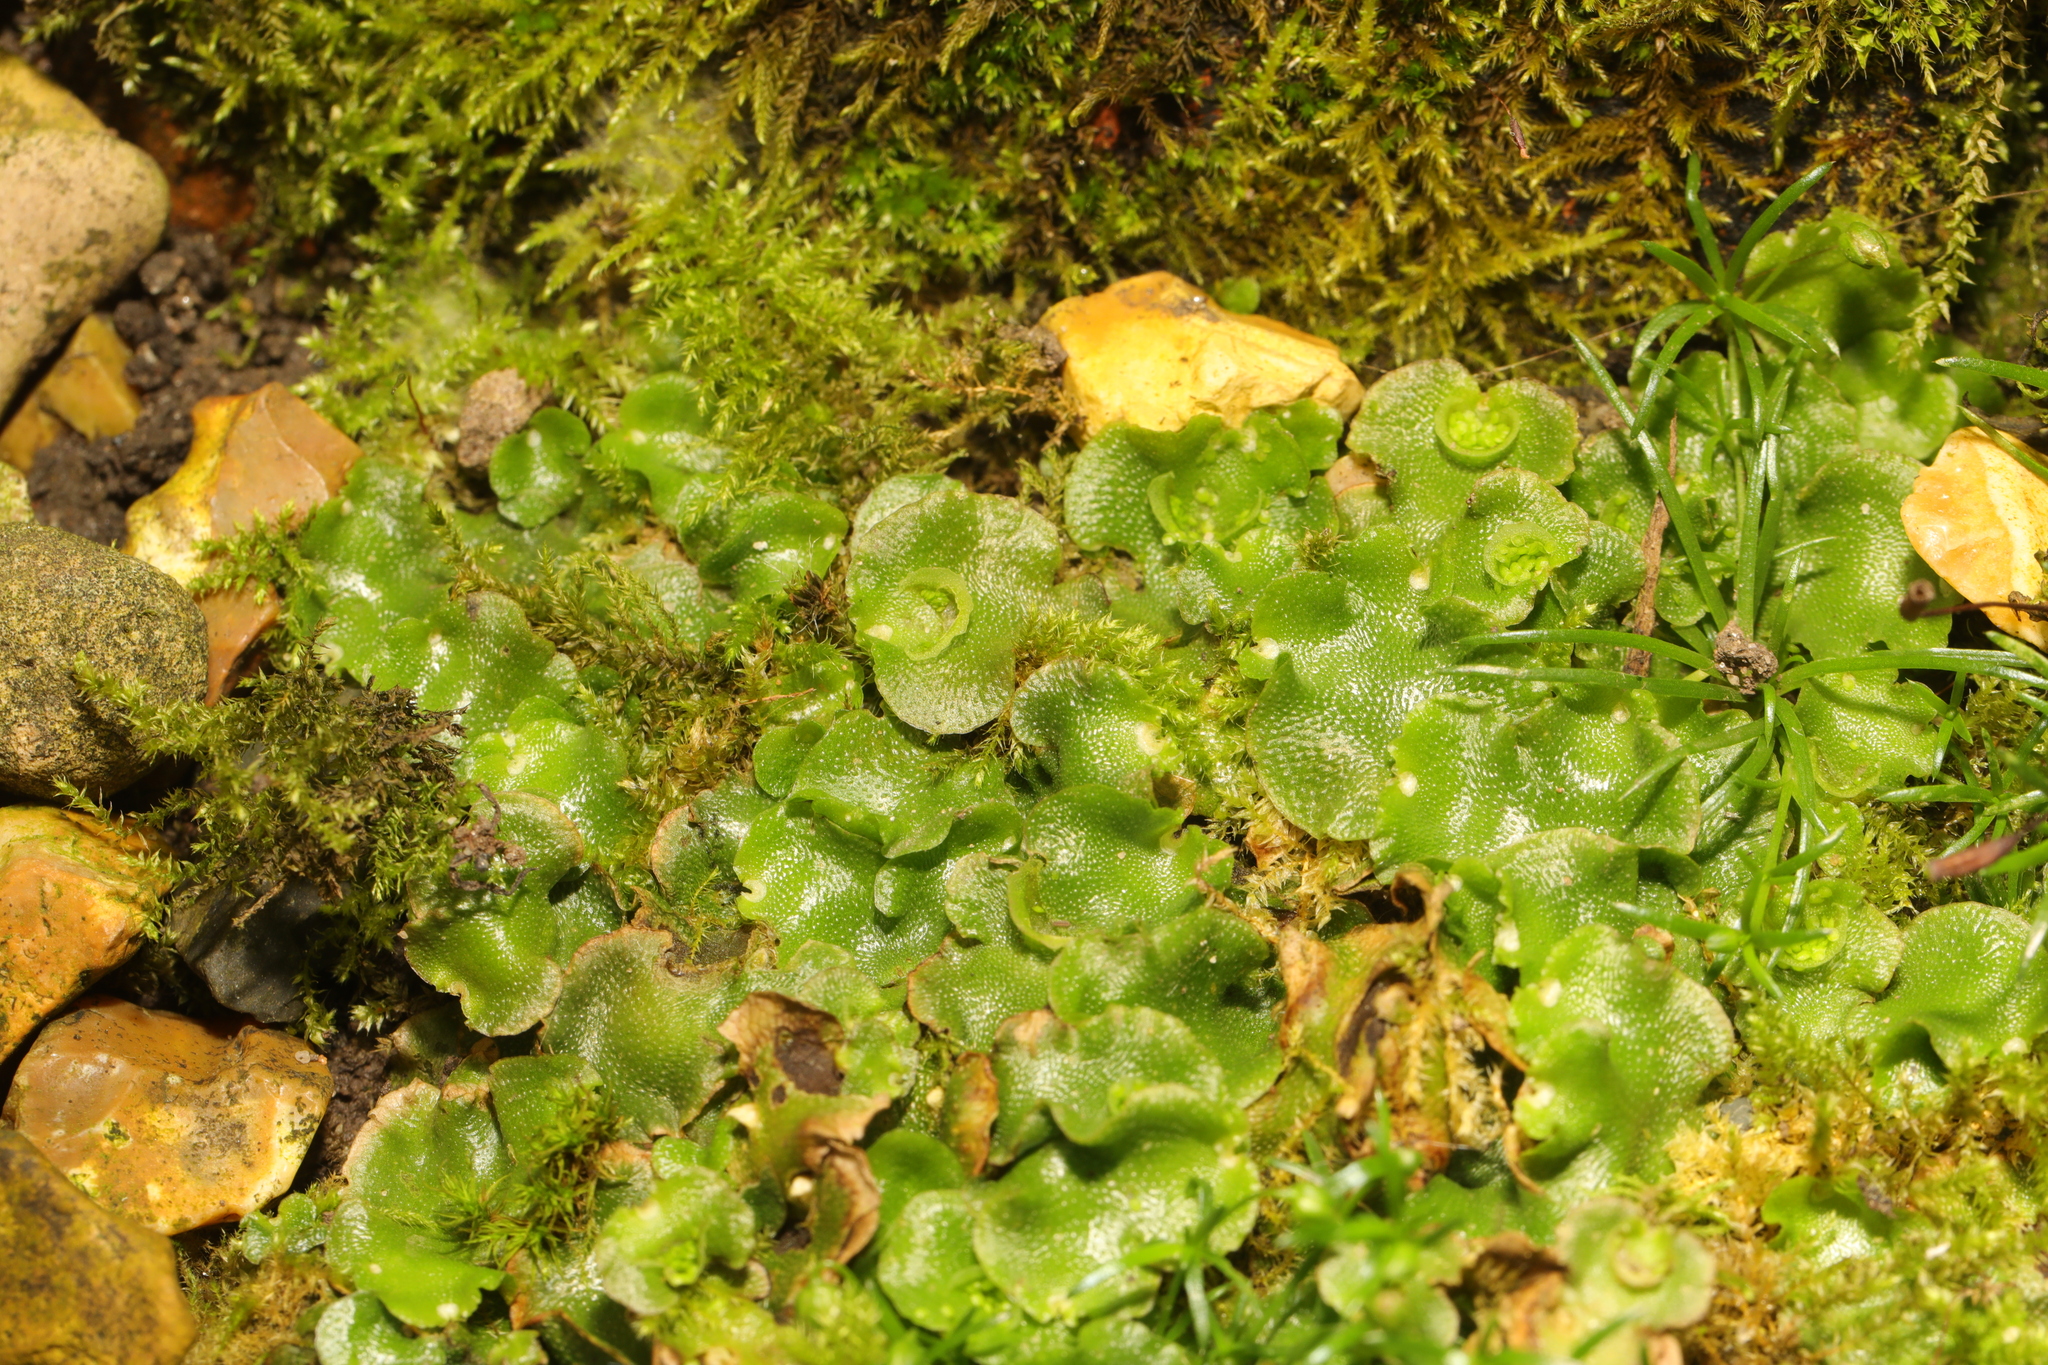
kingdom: Plantae
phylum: Marchantiophyta
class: Marchantiopsida
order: Lunulariales
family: Lunulariaceae
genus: Lunularia
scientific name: Lunularia cruciata
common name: Crescent-cup liverwort
